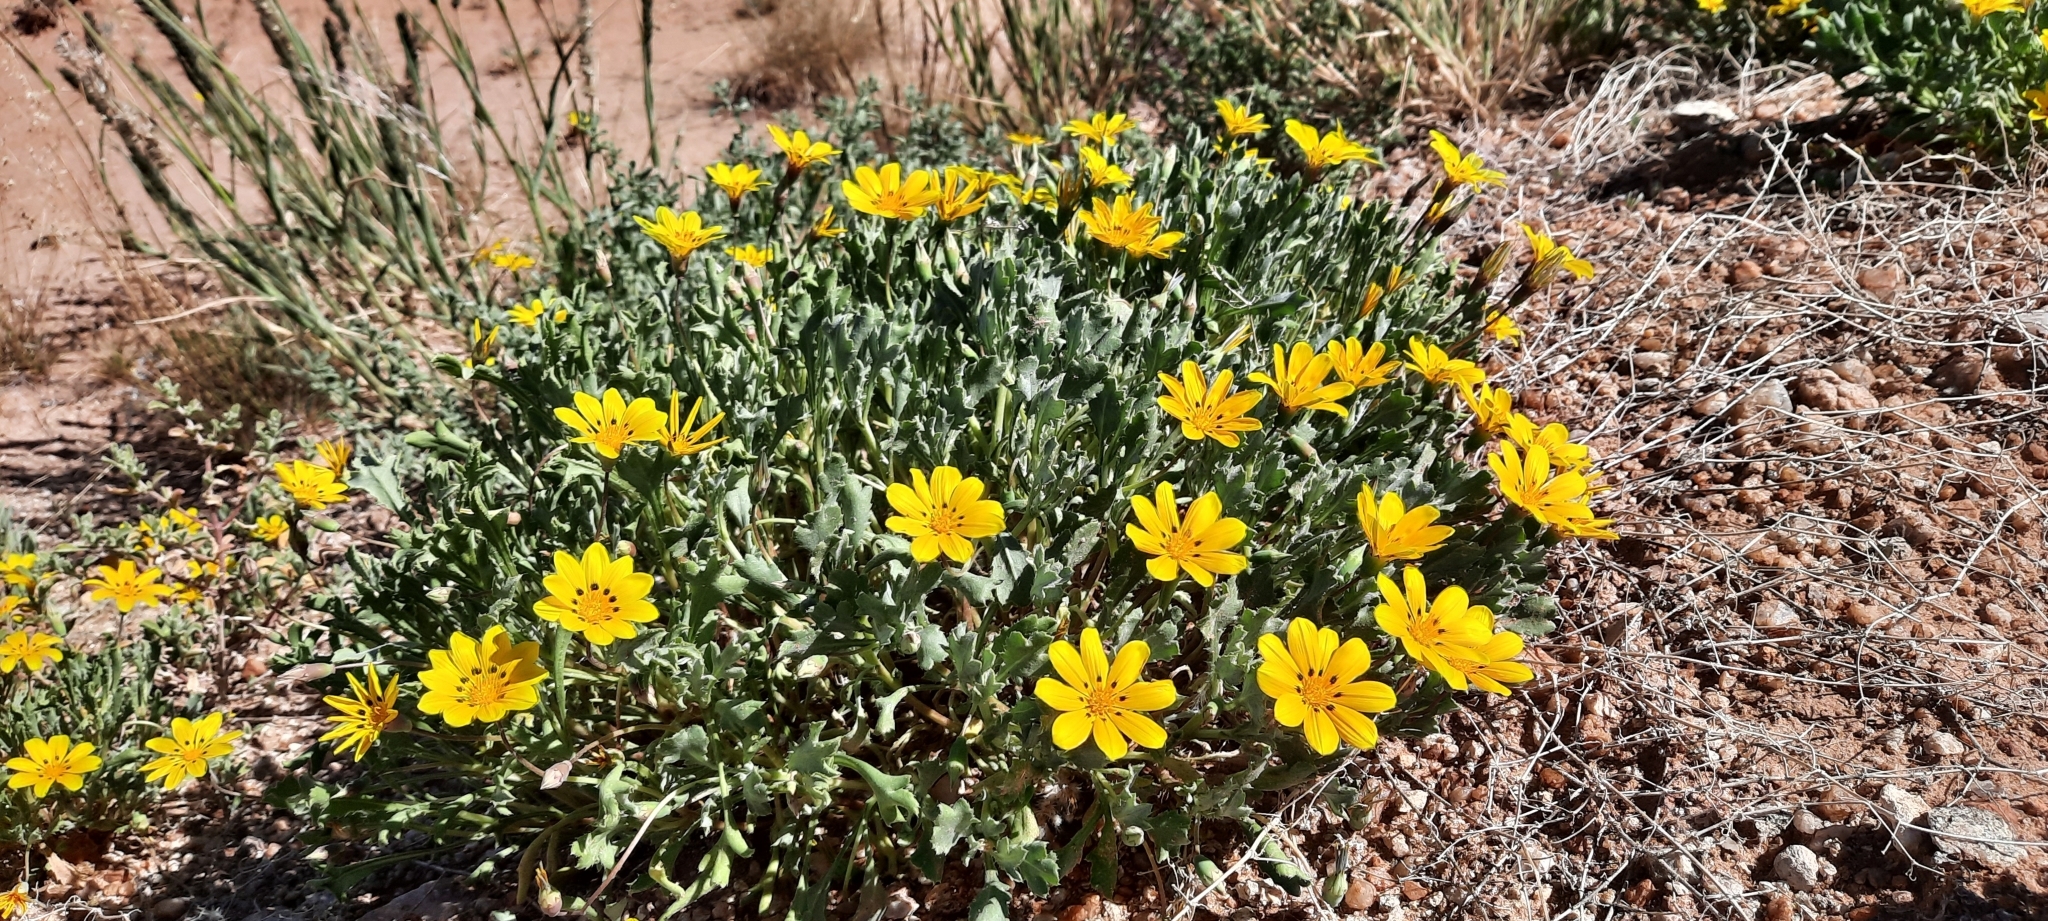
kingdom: Plantae
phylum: Tracheophyta
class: Magnoliopsida
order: Asterales
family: Asteraceae
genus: Gazania
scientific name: Gazania lichtensteinii
